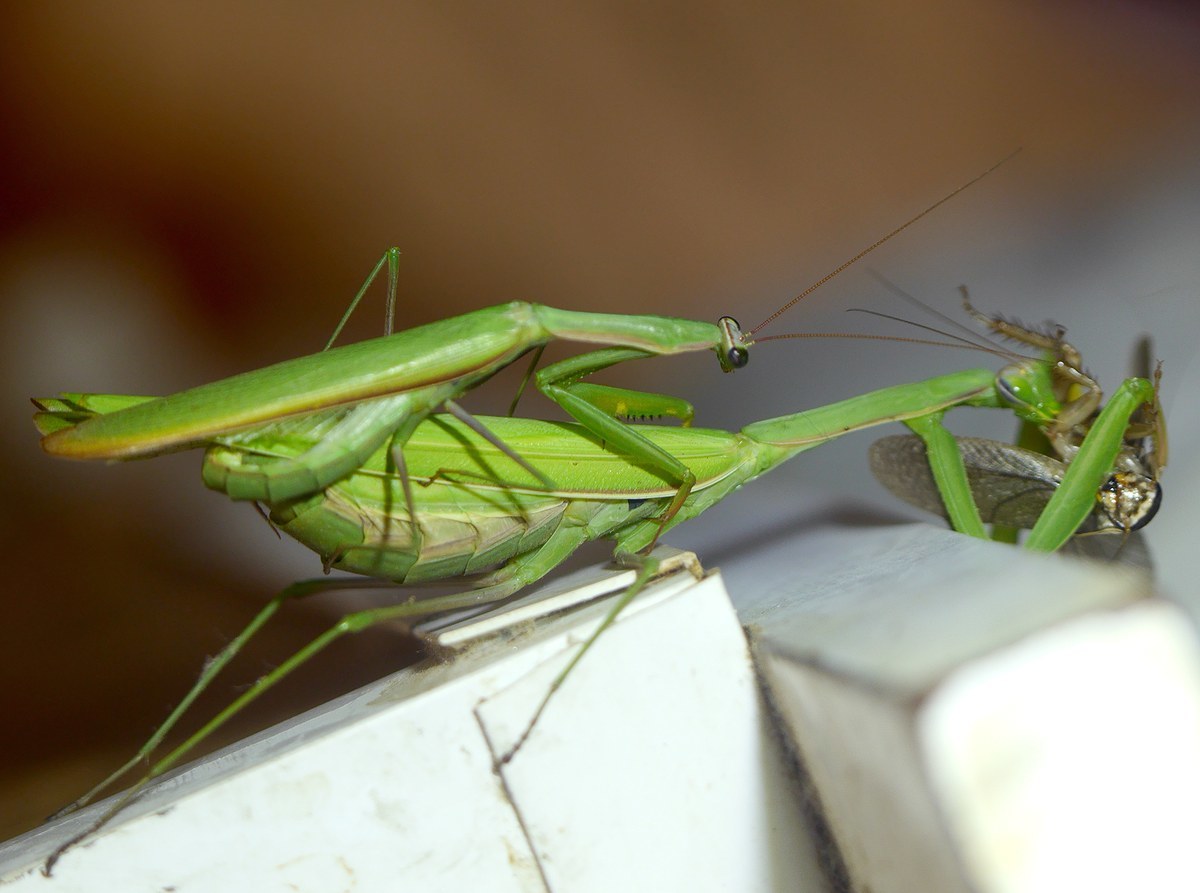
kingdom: Animalia
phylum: Arthropoda
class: Insecta
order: Mantodea
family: Mantidae
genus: Mantis
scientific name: Mantis religiosa
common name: Praying mantis
